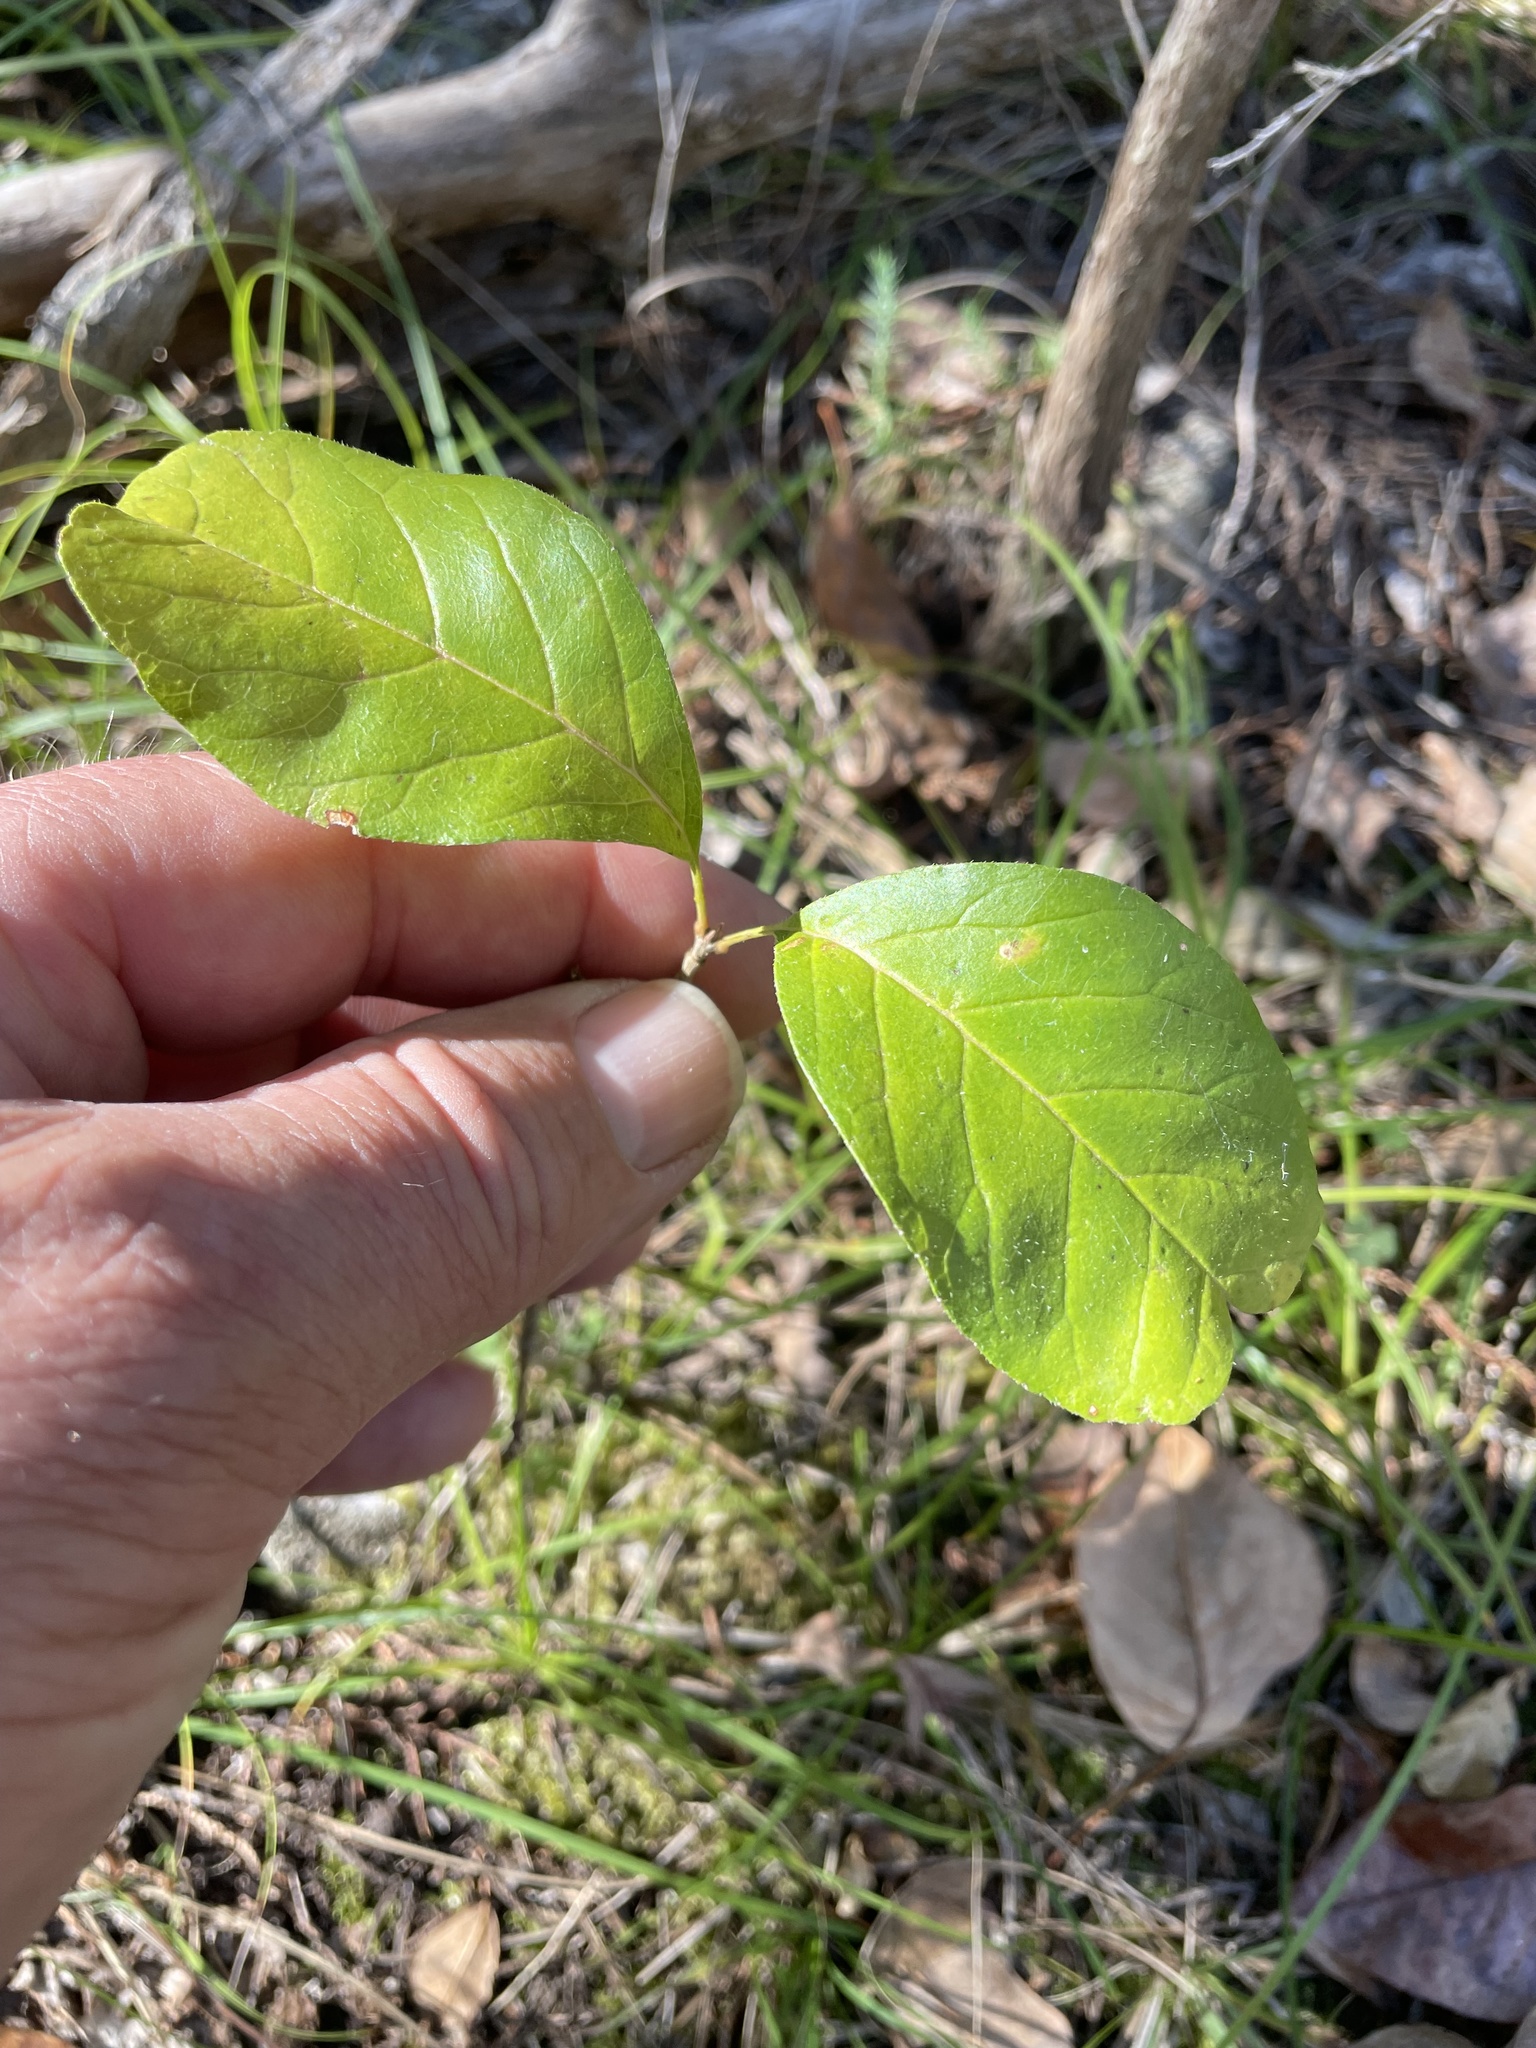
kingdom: Plantae
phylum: Tracheophyta
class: Magnoliopsida
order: Lamiales
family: Oleaceae
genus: Fraxinus
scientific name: Fraxinus albicans
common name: Texas ash
